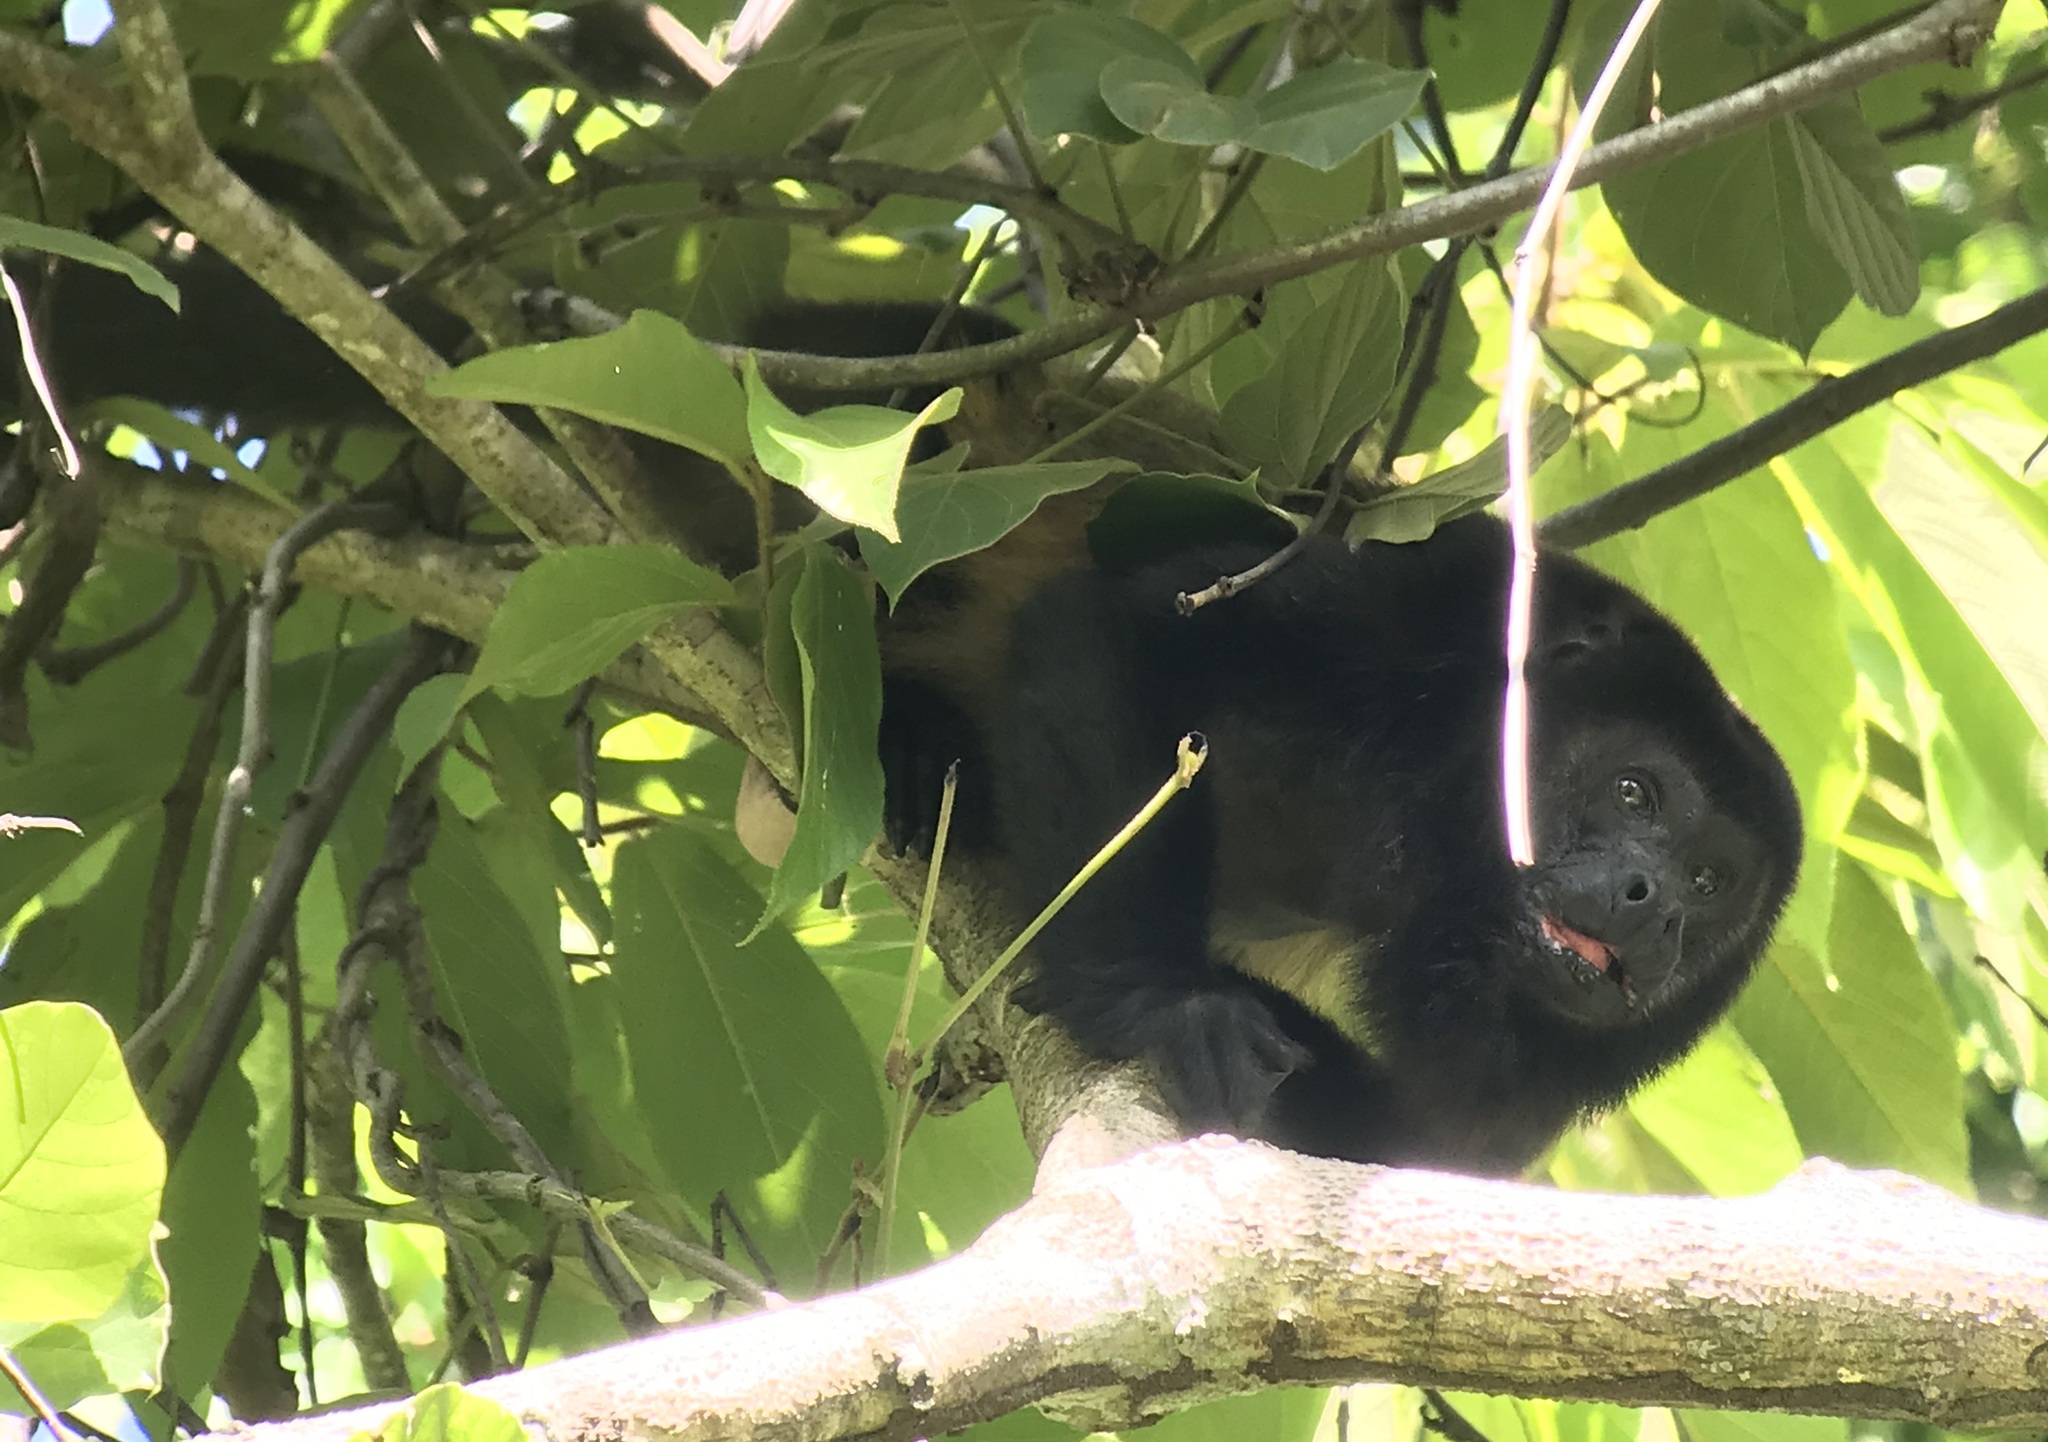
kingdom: Animalia
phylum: Chordata
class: Mammalia
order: Primates
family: Atelidae
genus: Alouatta
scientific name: Alouatta palliata
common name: Mantled howler
